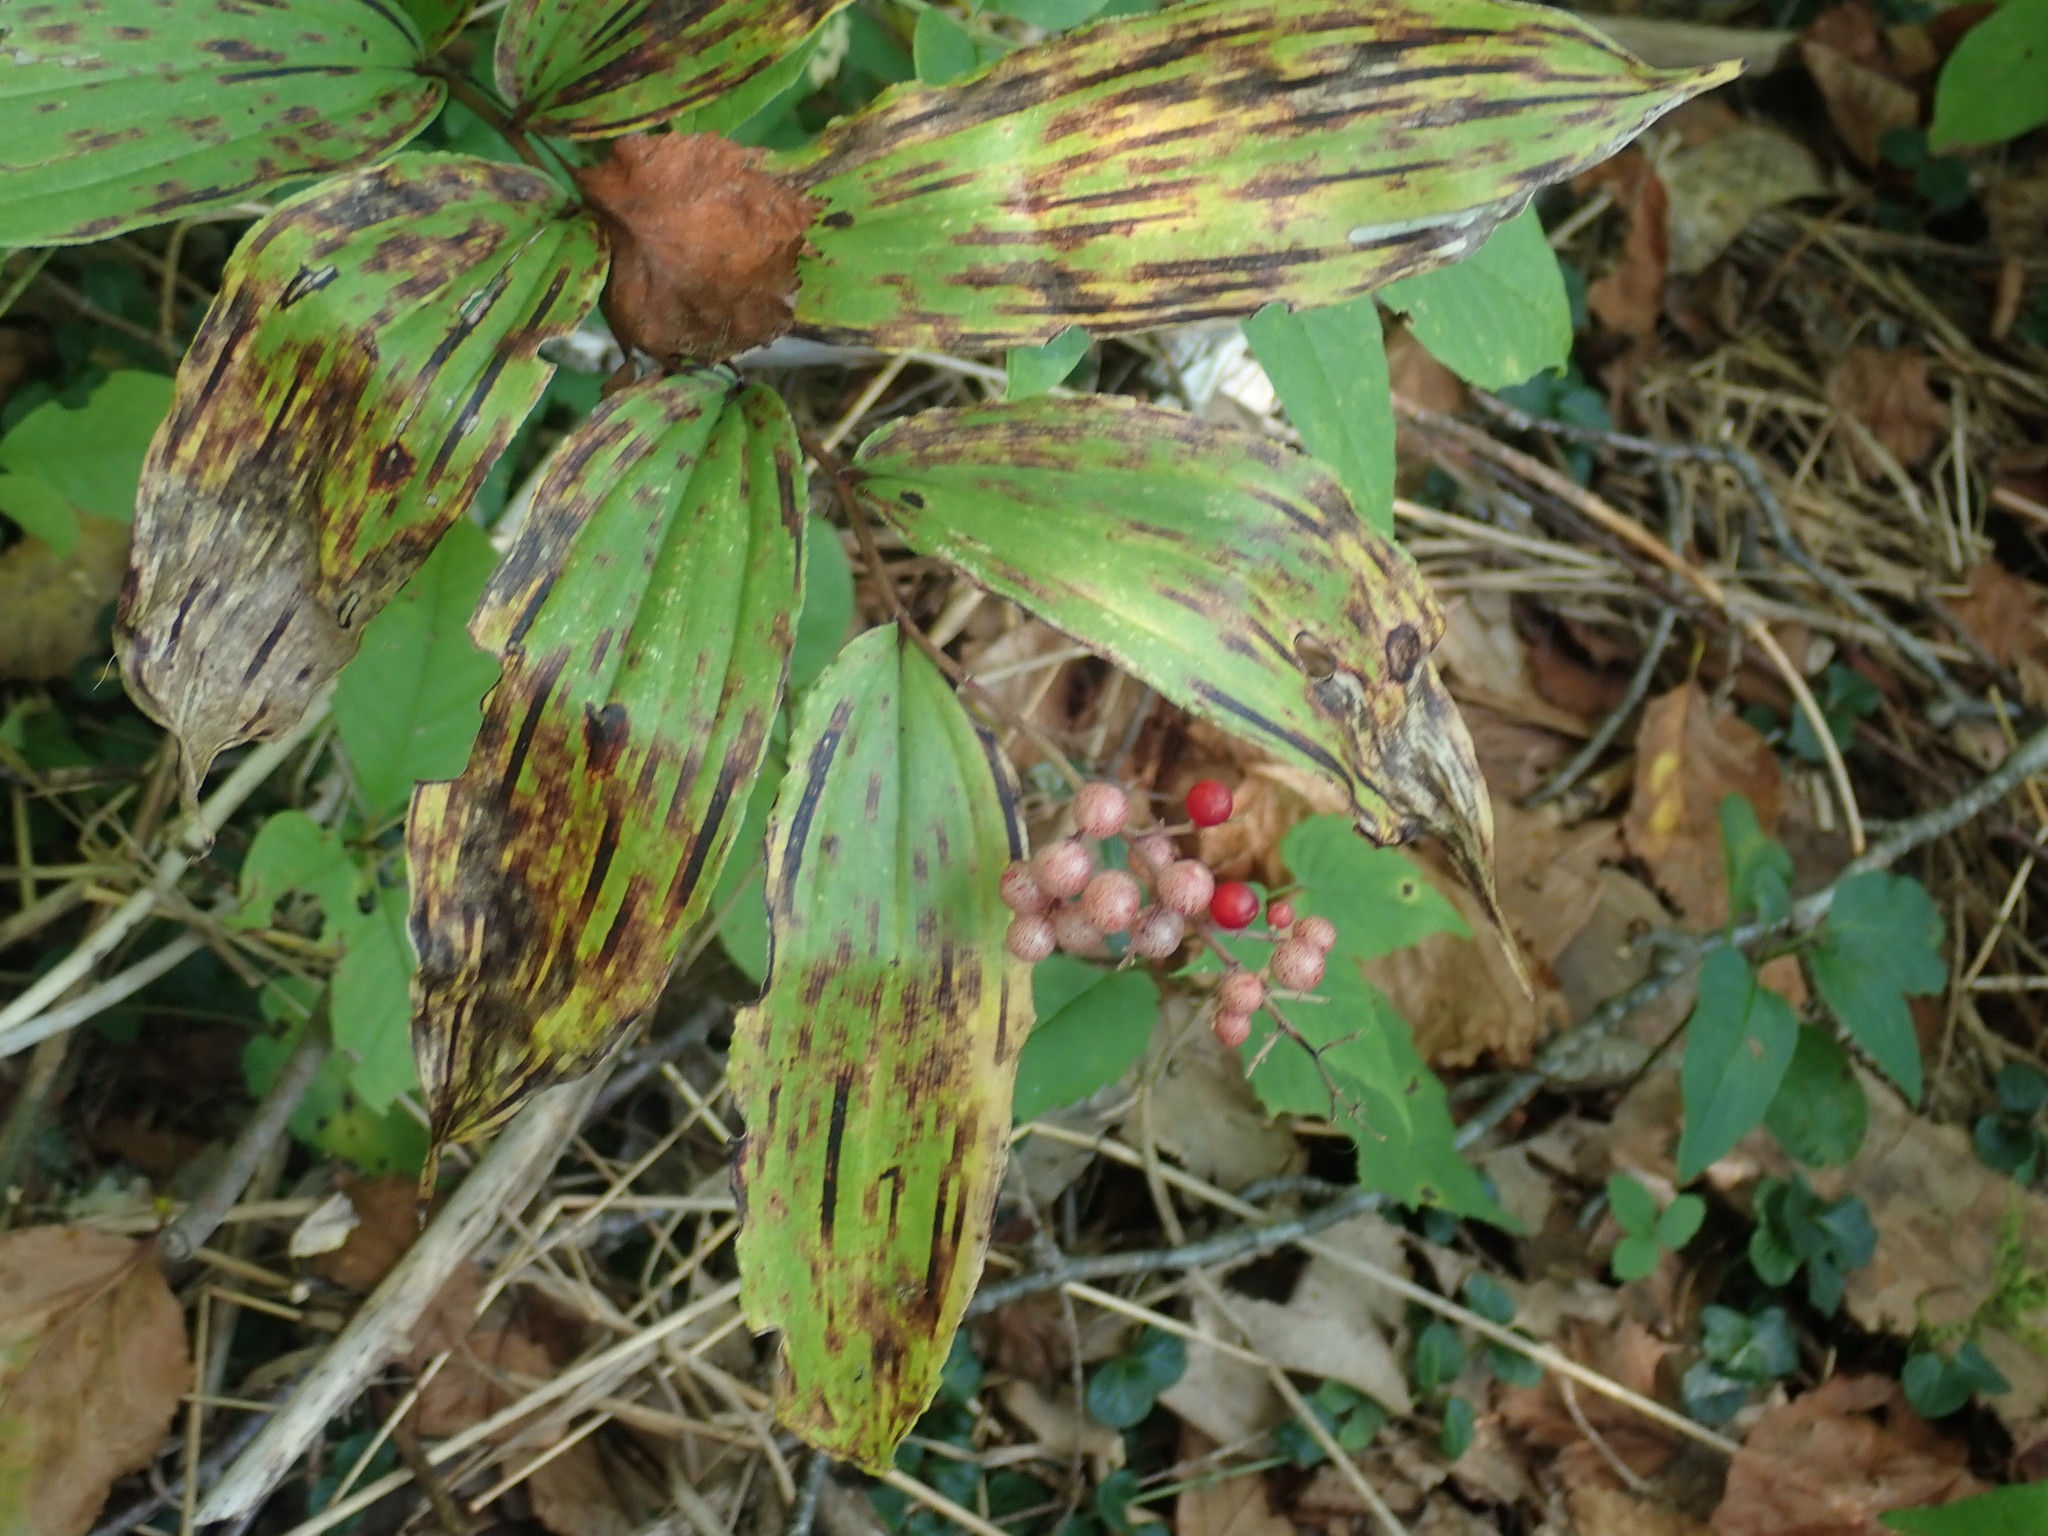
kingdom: Plantae
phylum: Tracheophyta
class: Liliopsida
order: Asparagales
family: Asparagaceae
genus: Maianthemum
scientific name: Maianthemum racemosum
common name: False spikenard
